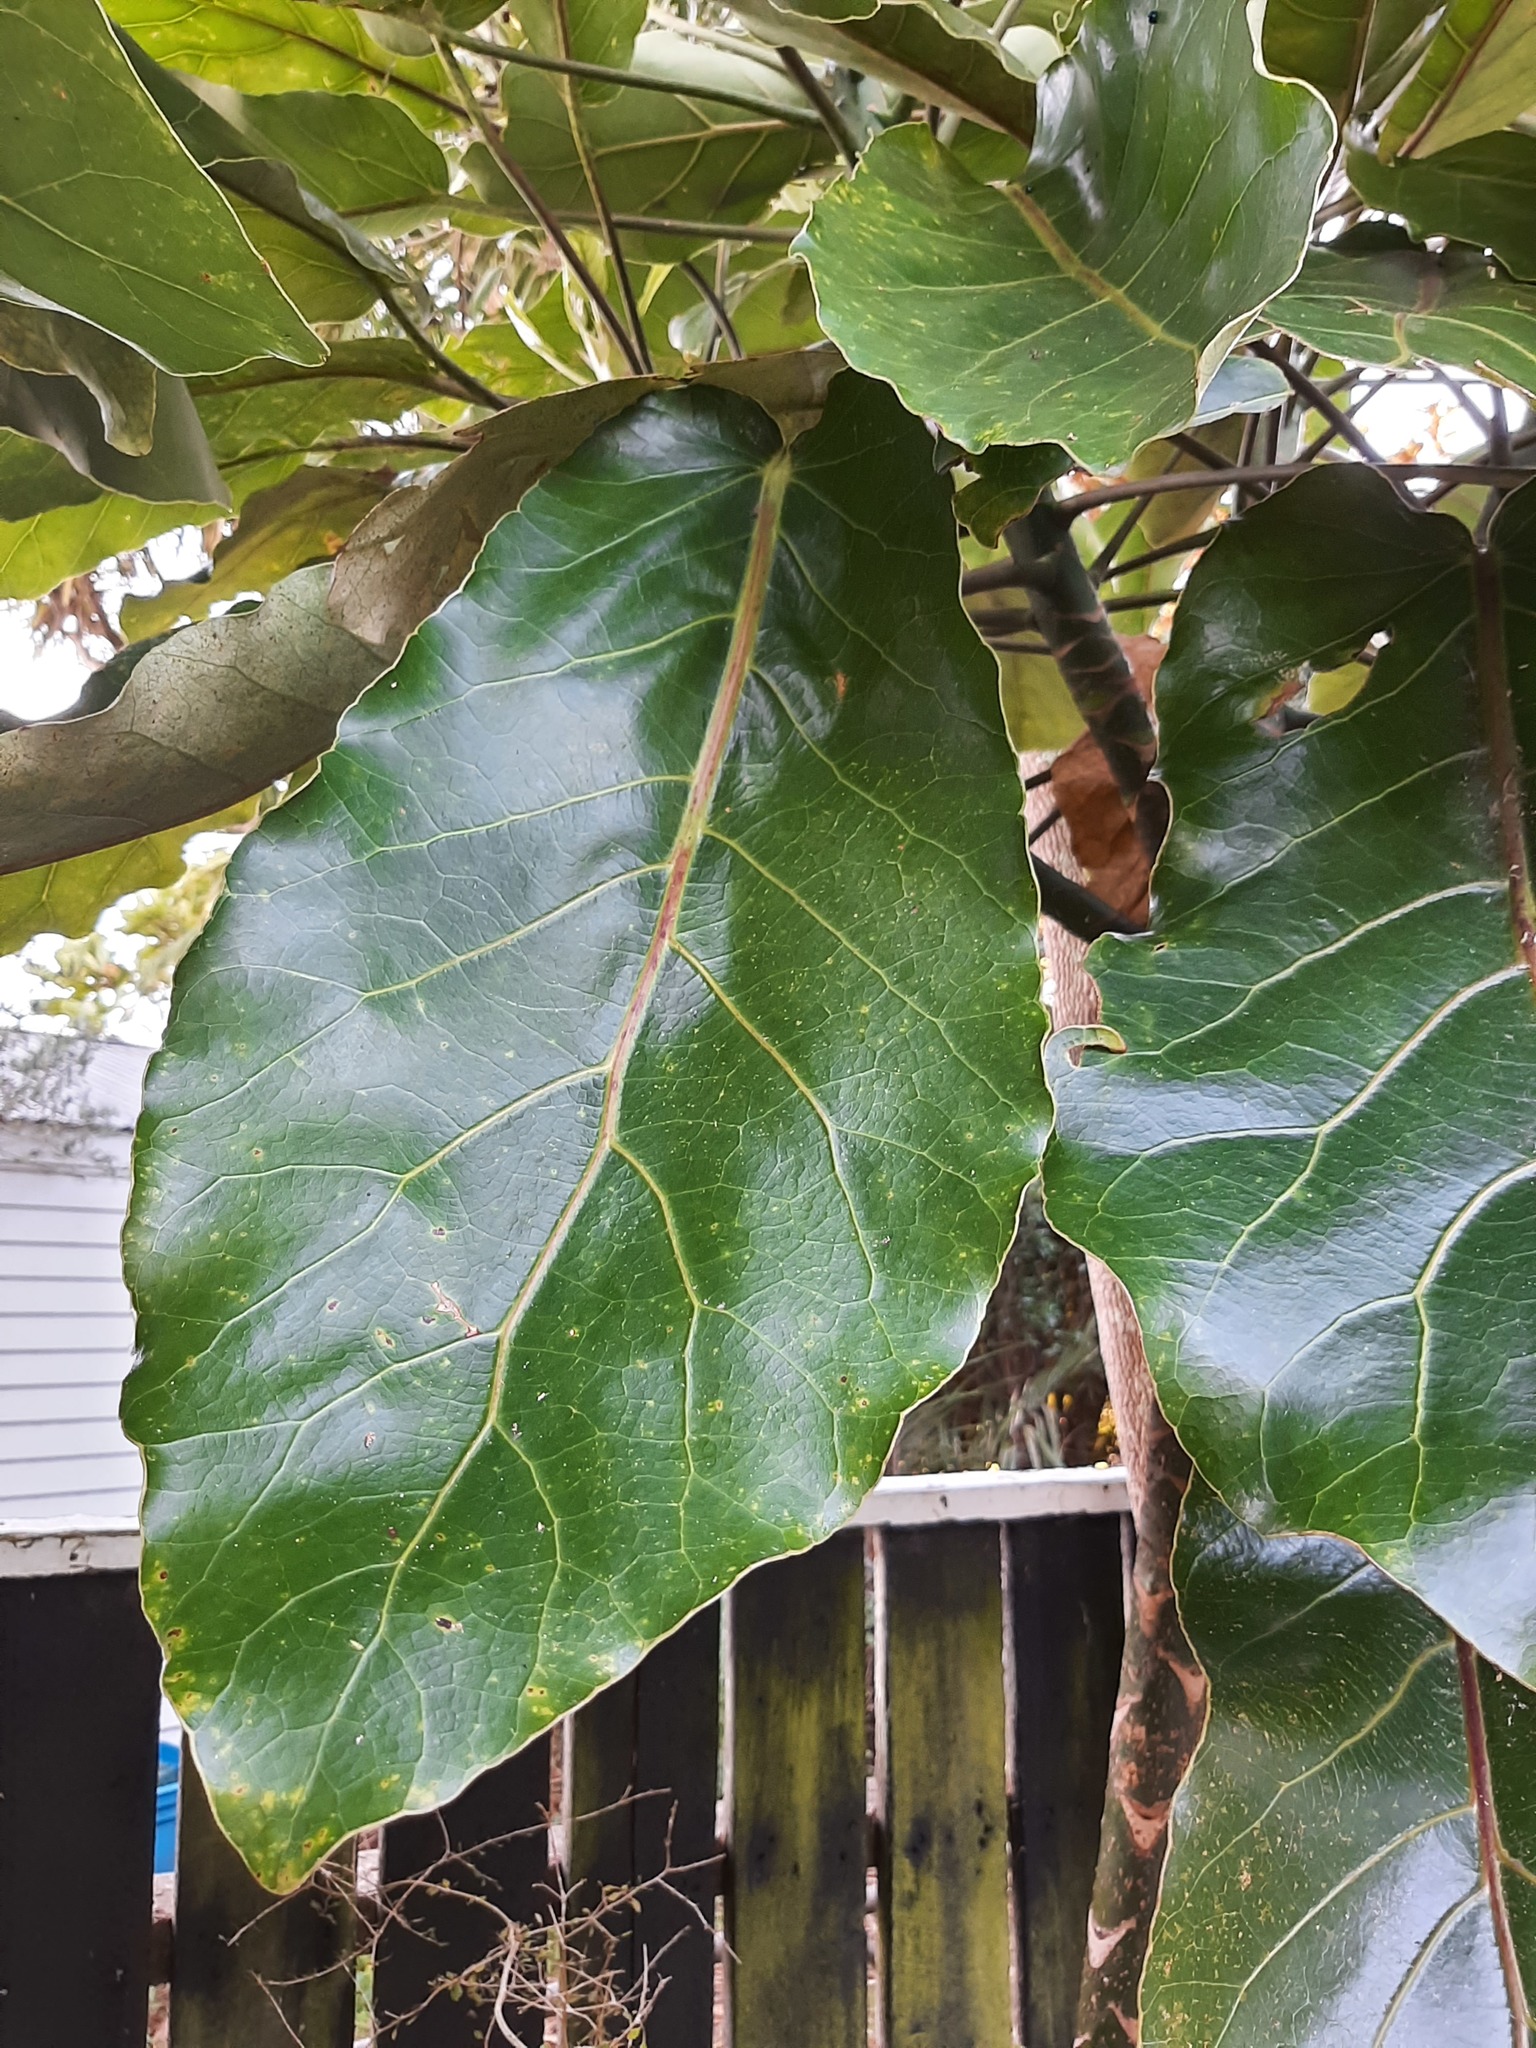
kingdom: Plantae
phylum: Tracheophyta
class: Magnoliopsida
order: Apiales
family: Araliaceae
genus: Meryta
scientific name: Meryta sinclairii
